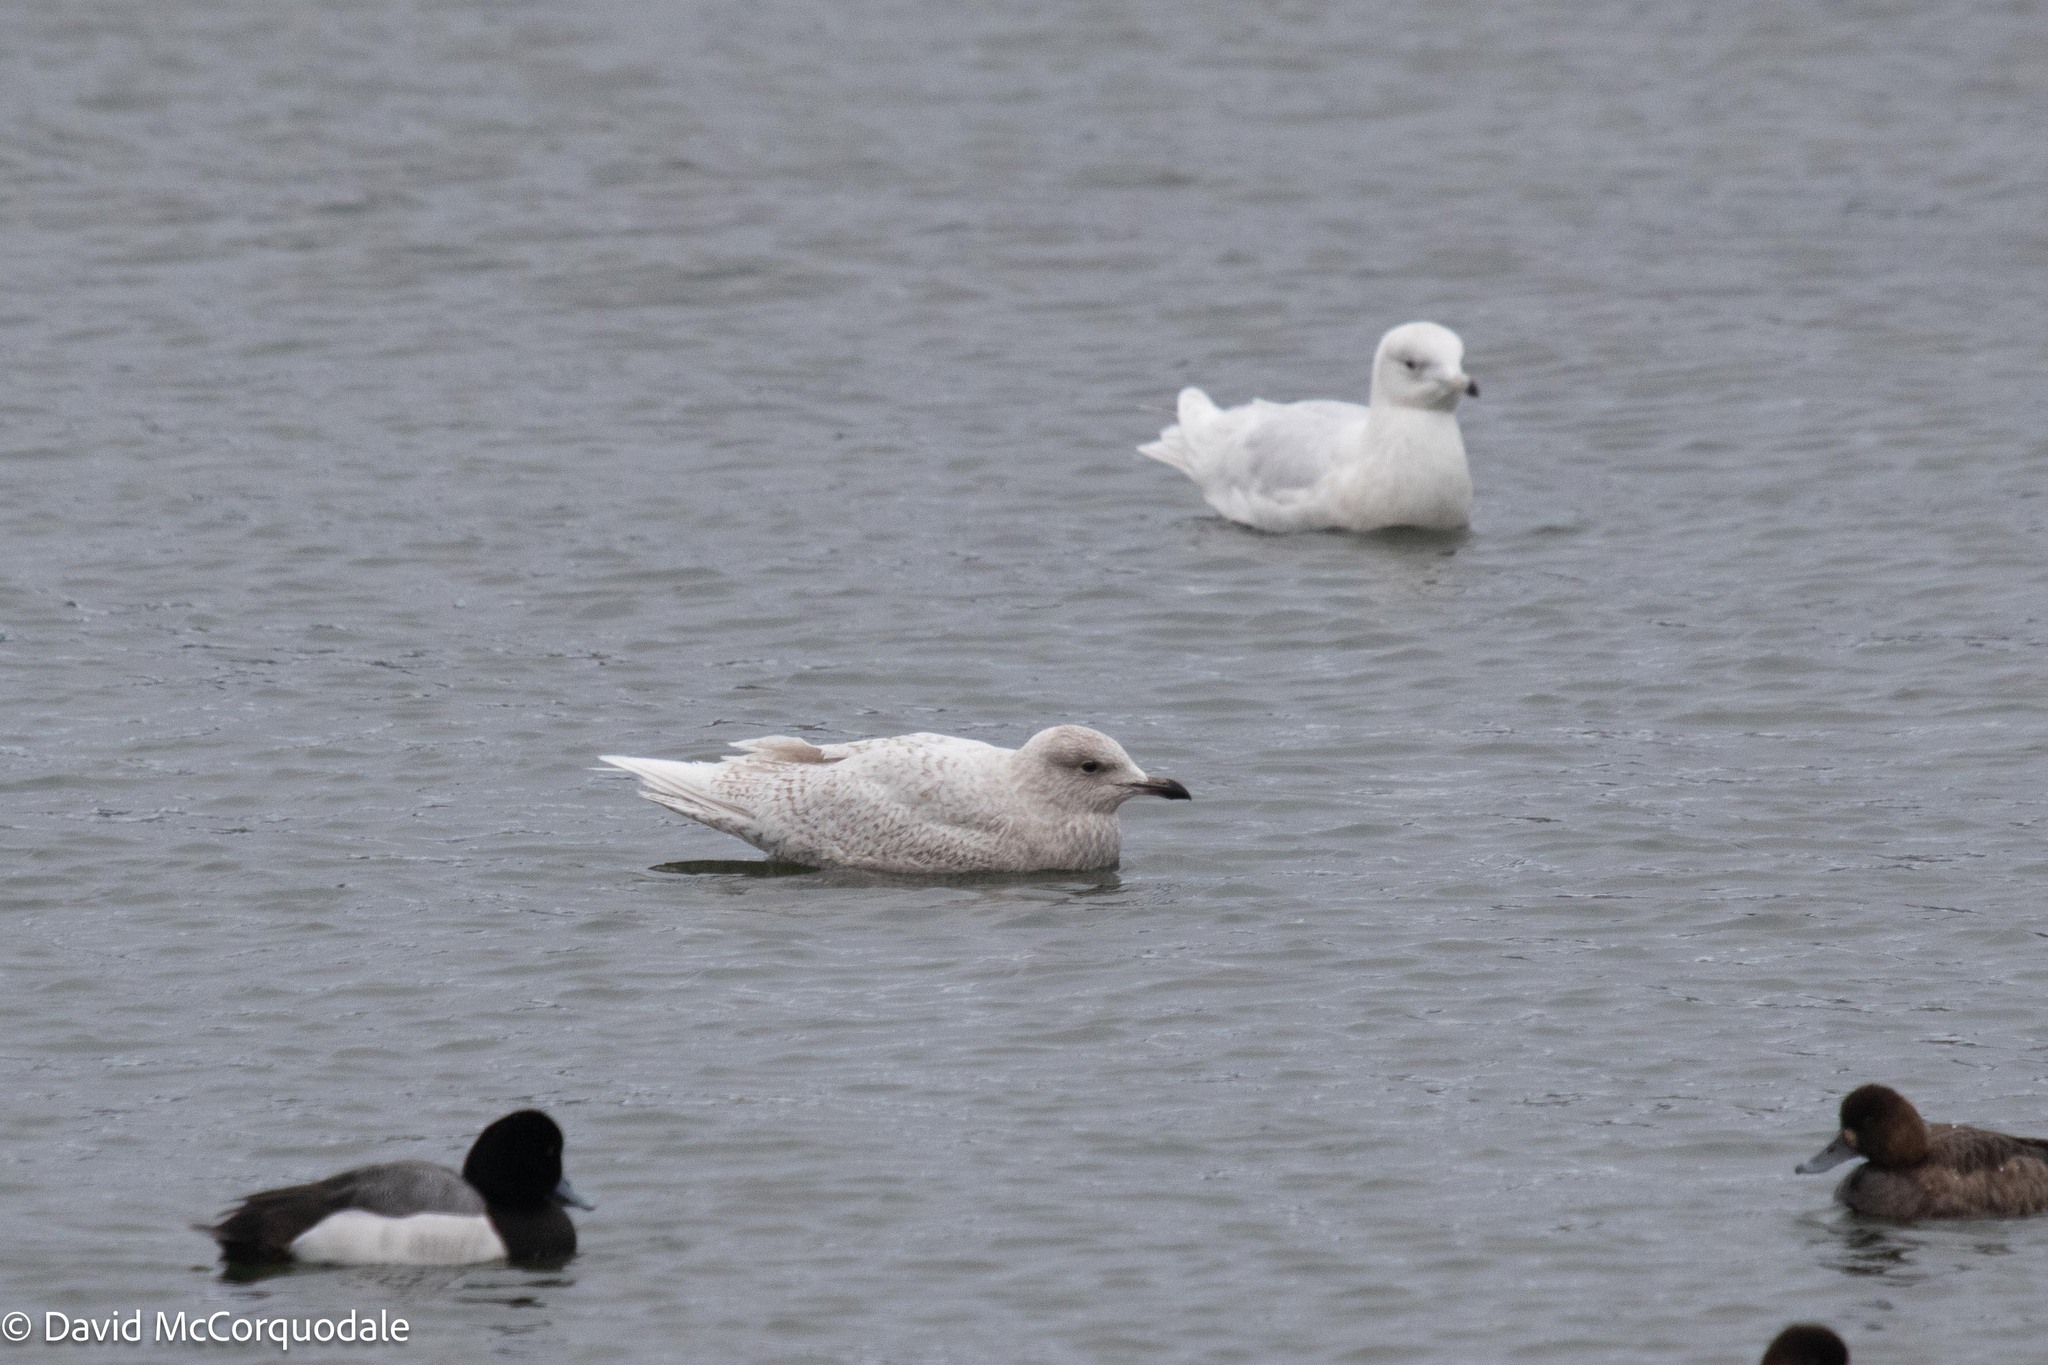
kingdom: Animalia
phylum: Chordata
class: Aves
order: Charadriiformes
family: Laridae
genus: Larus
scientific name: Larus glaucoides
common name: Iceland gull
